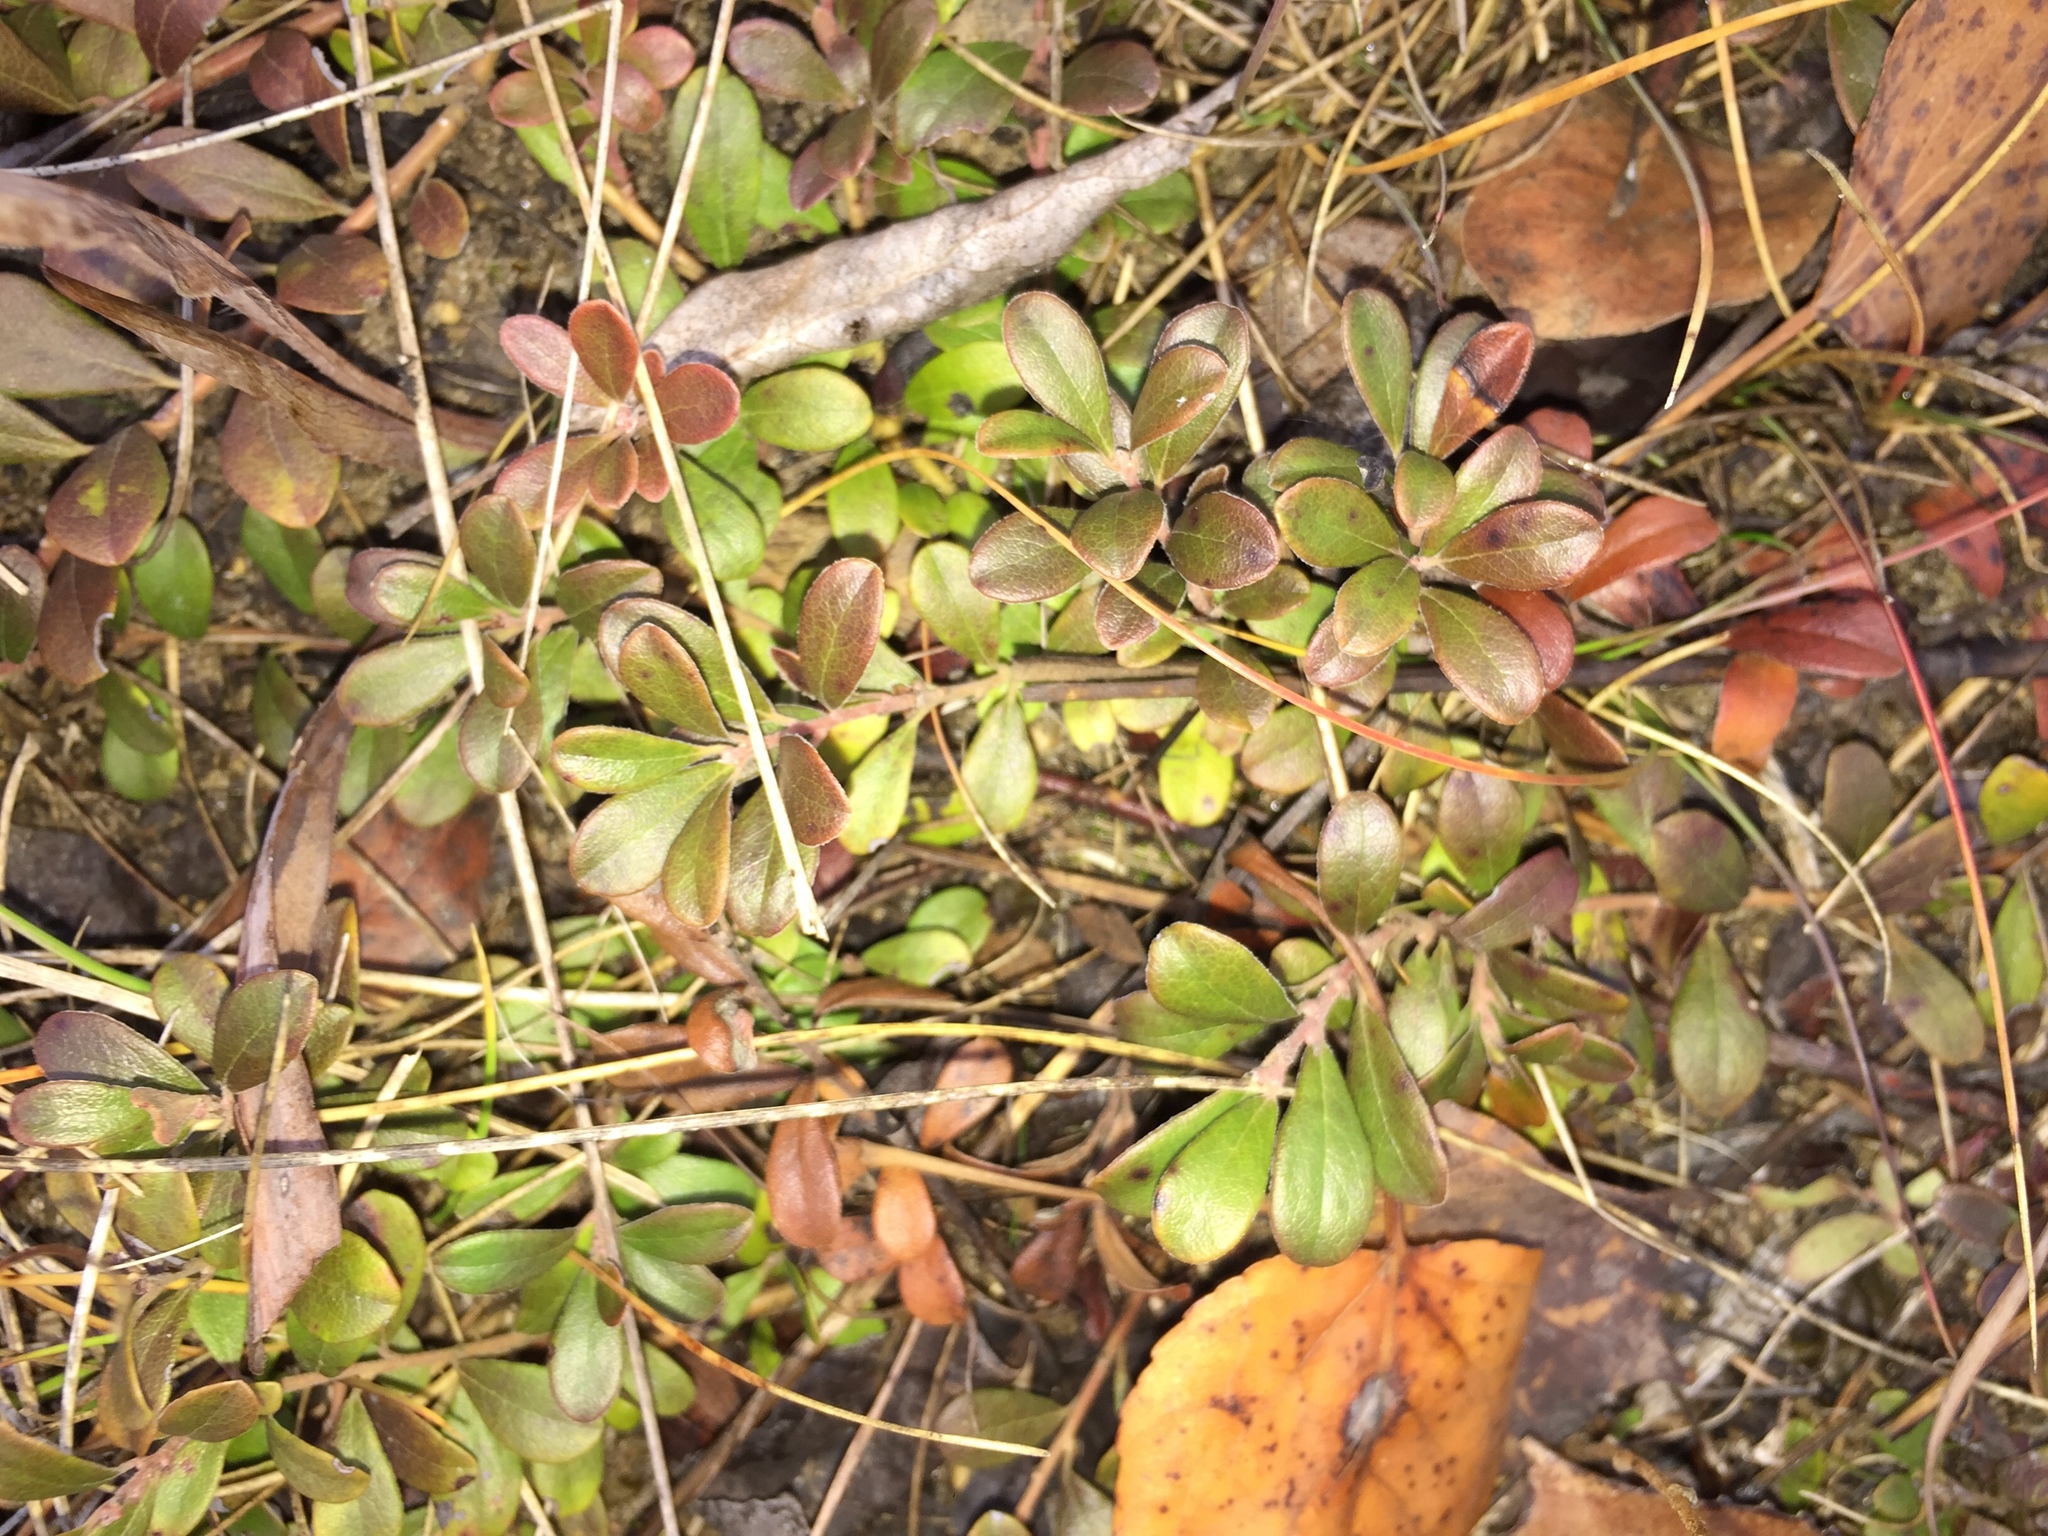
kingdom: Plantae
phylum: Tracheophyta
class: Magnoliopsida
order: Ericales
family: Ericaceae
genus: Arctostaphylos
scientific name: Arctostaphylos uva-ursi
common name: Bearberry
